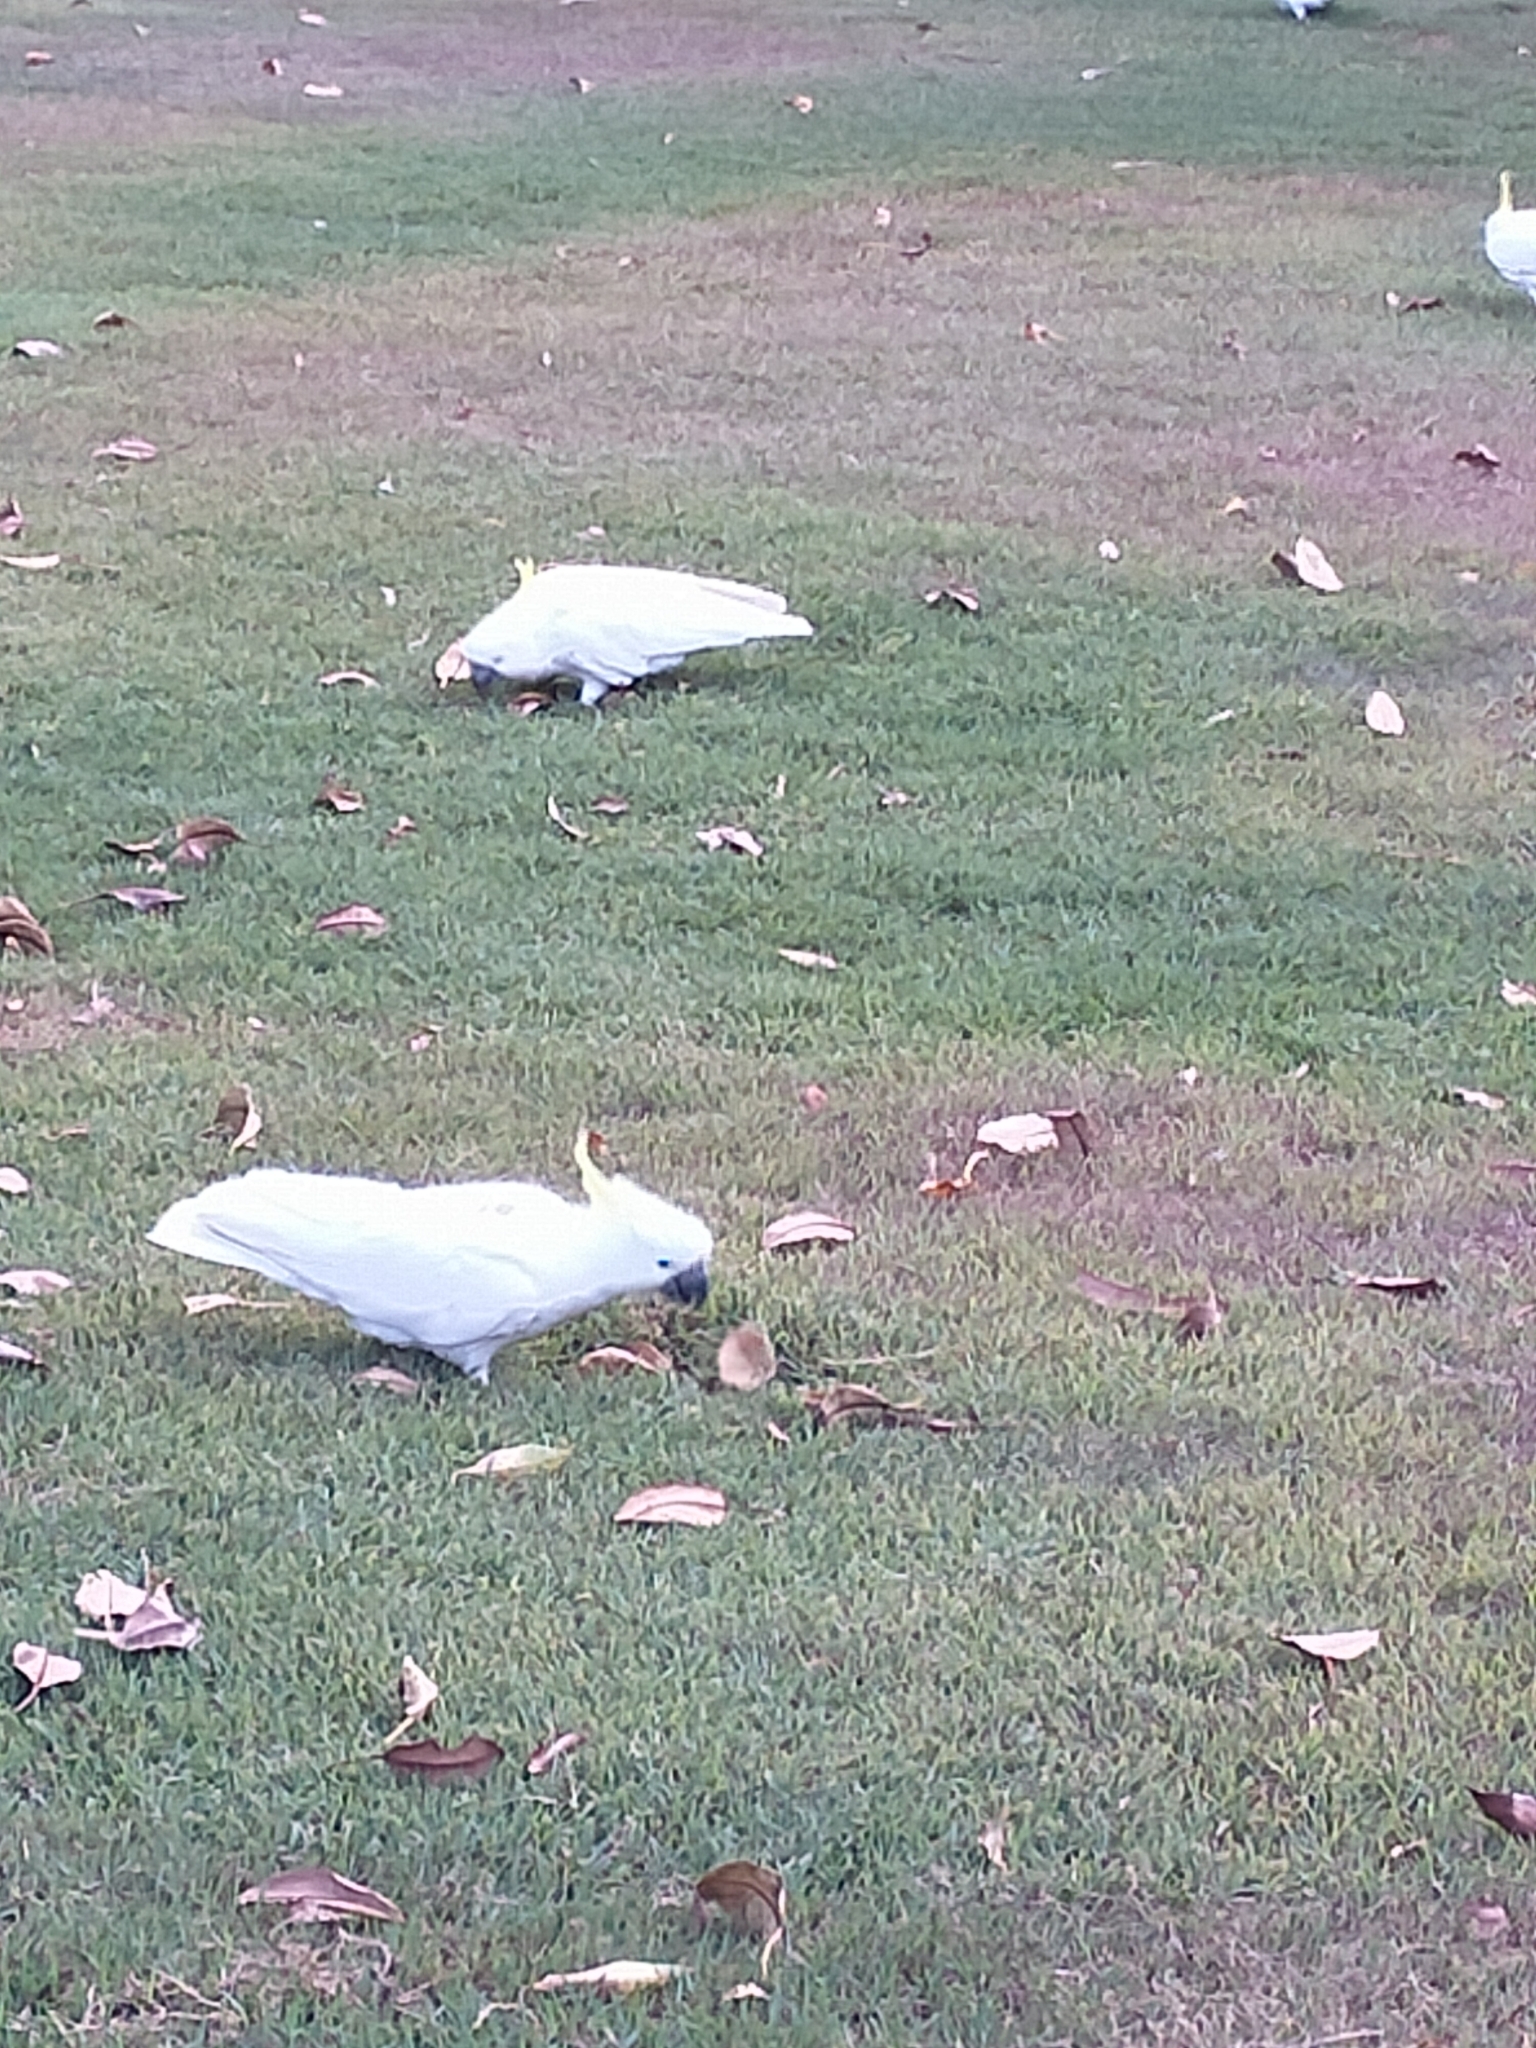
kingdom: Animalia
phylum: Chordata
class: Aves
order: Psittaciformes
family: Psittacidae
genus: Cacatua
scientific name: Cacatua galerita
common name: Sulphur-crested cockatoo
